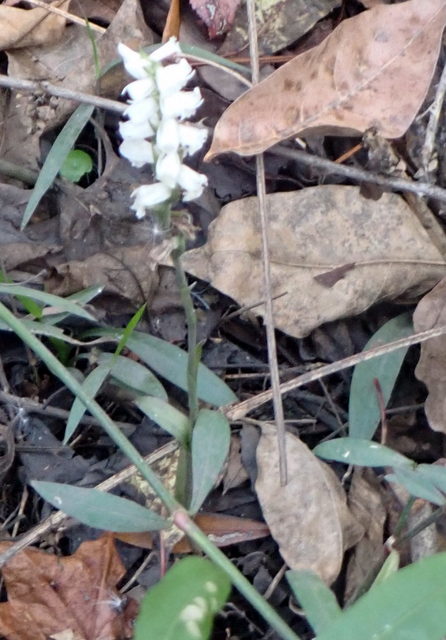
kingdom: Plantae
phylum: Tracheophyta
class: Liliopsida
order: Asparagales
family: Orchidaceae
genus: Spiranthes
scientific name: Spiranthes odorata
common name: Marsh ladies'-tresses
